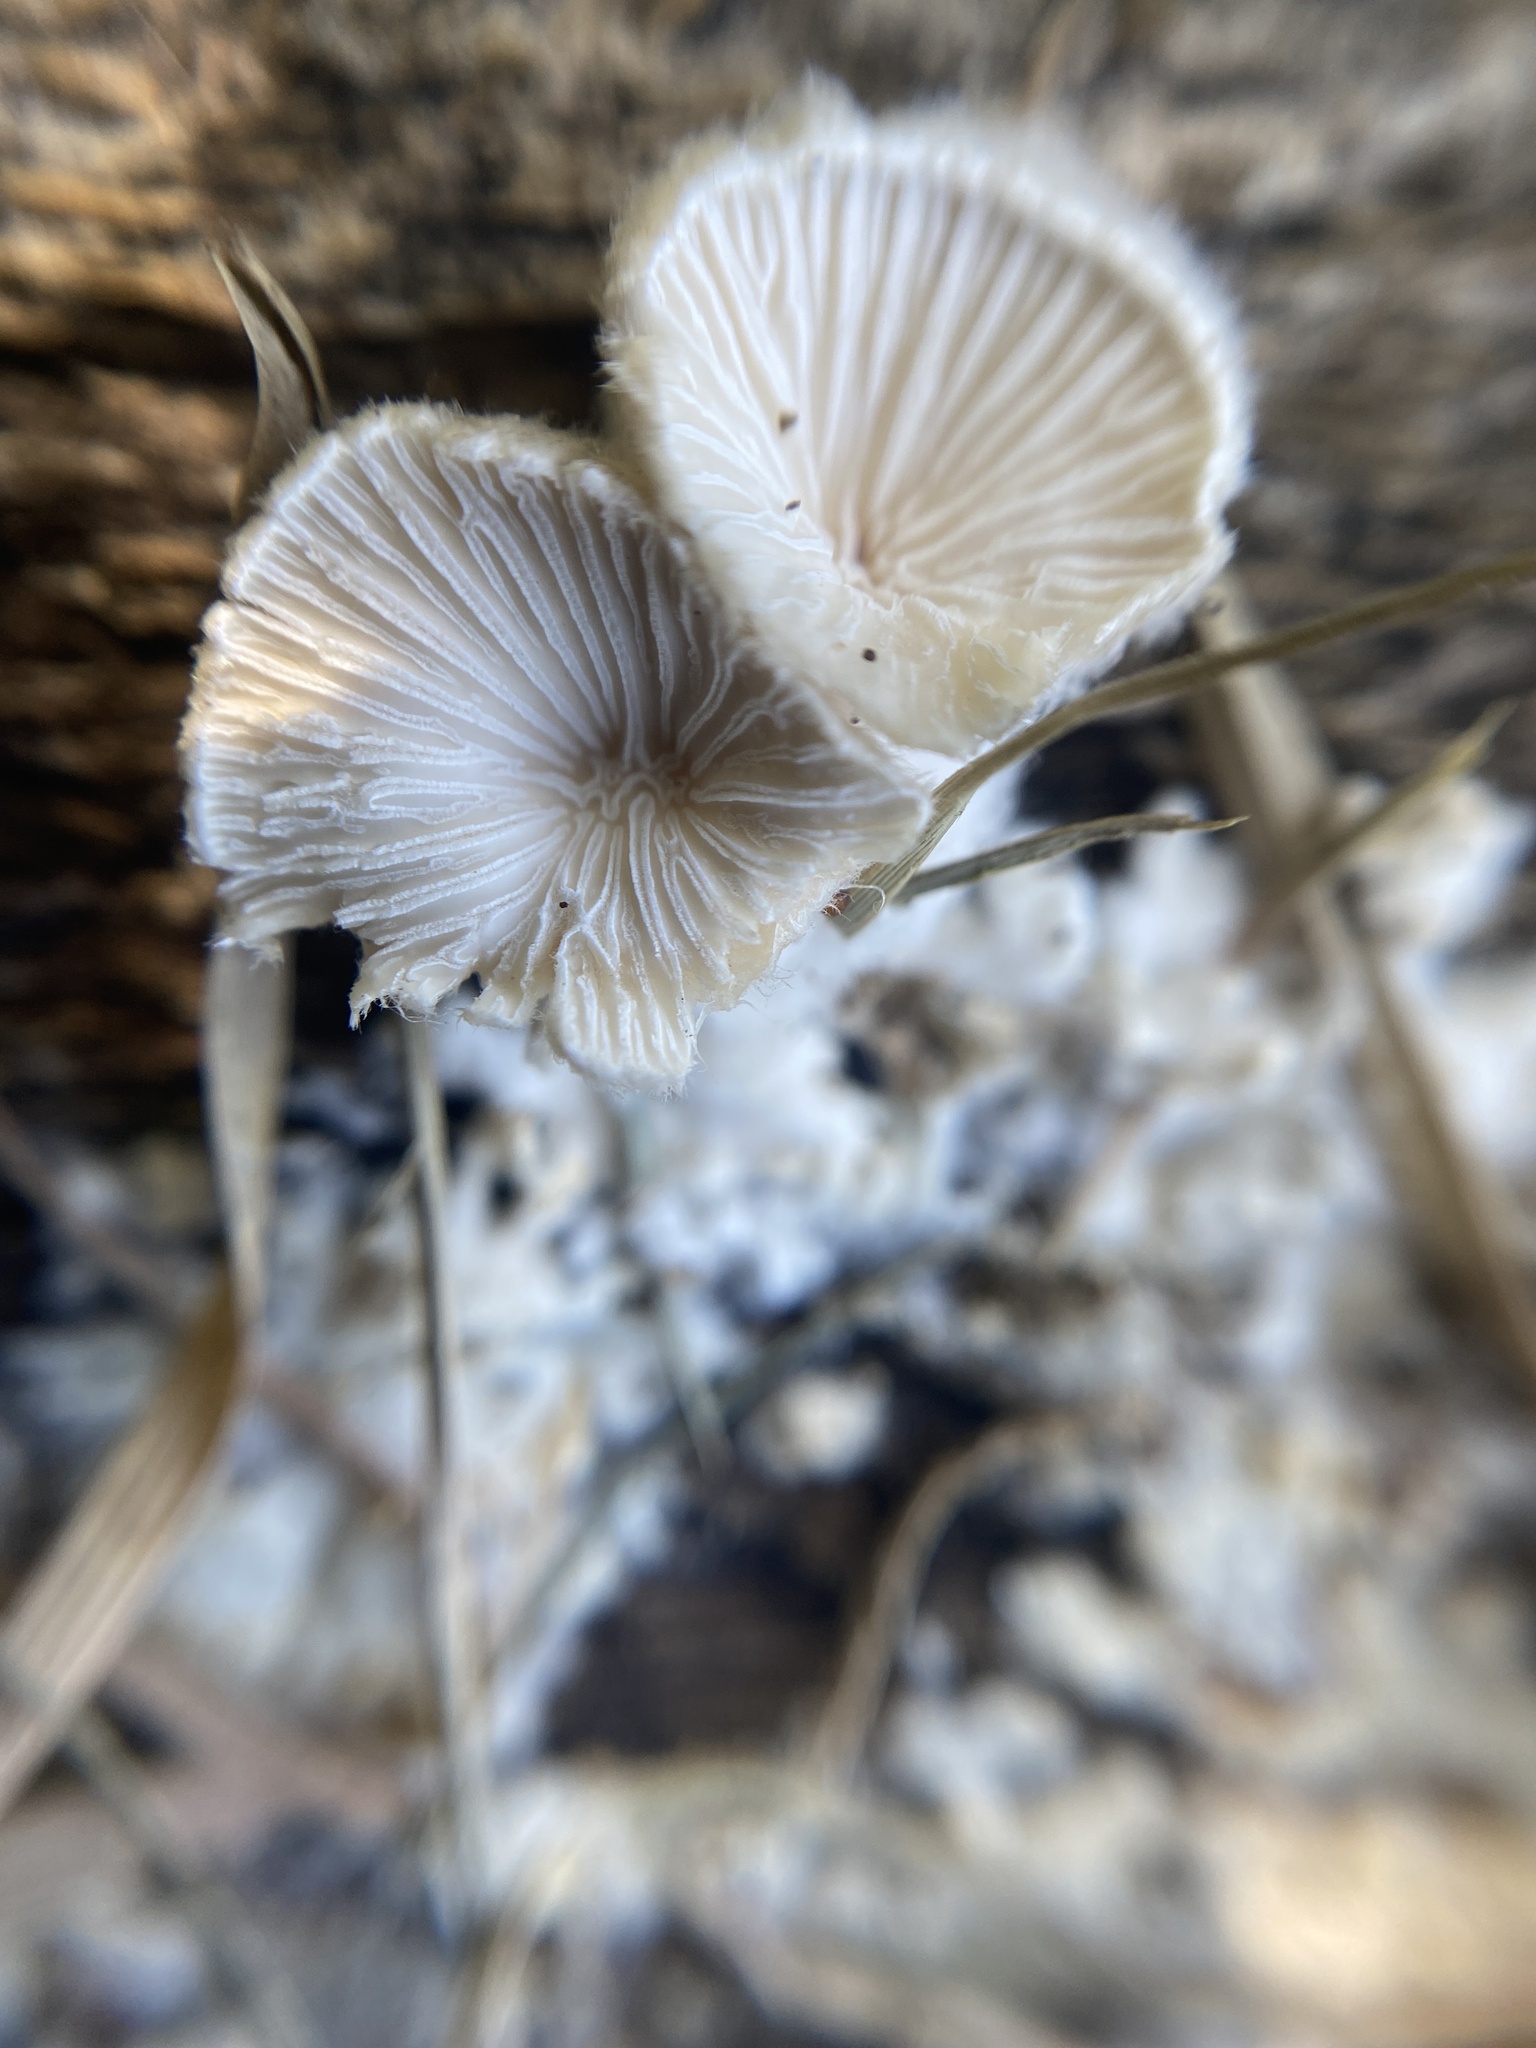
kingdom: Fungi
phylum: Basidiomycota
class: Agaricomycetes
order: Agaricales
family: Schizophyllaceae
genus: Schizophyllum
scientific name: Schizophyllum commune
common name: Common porecrust
